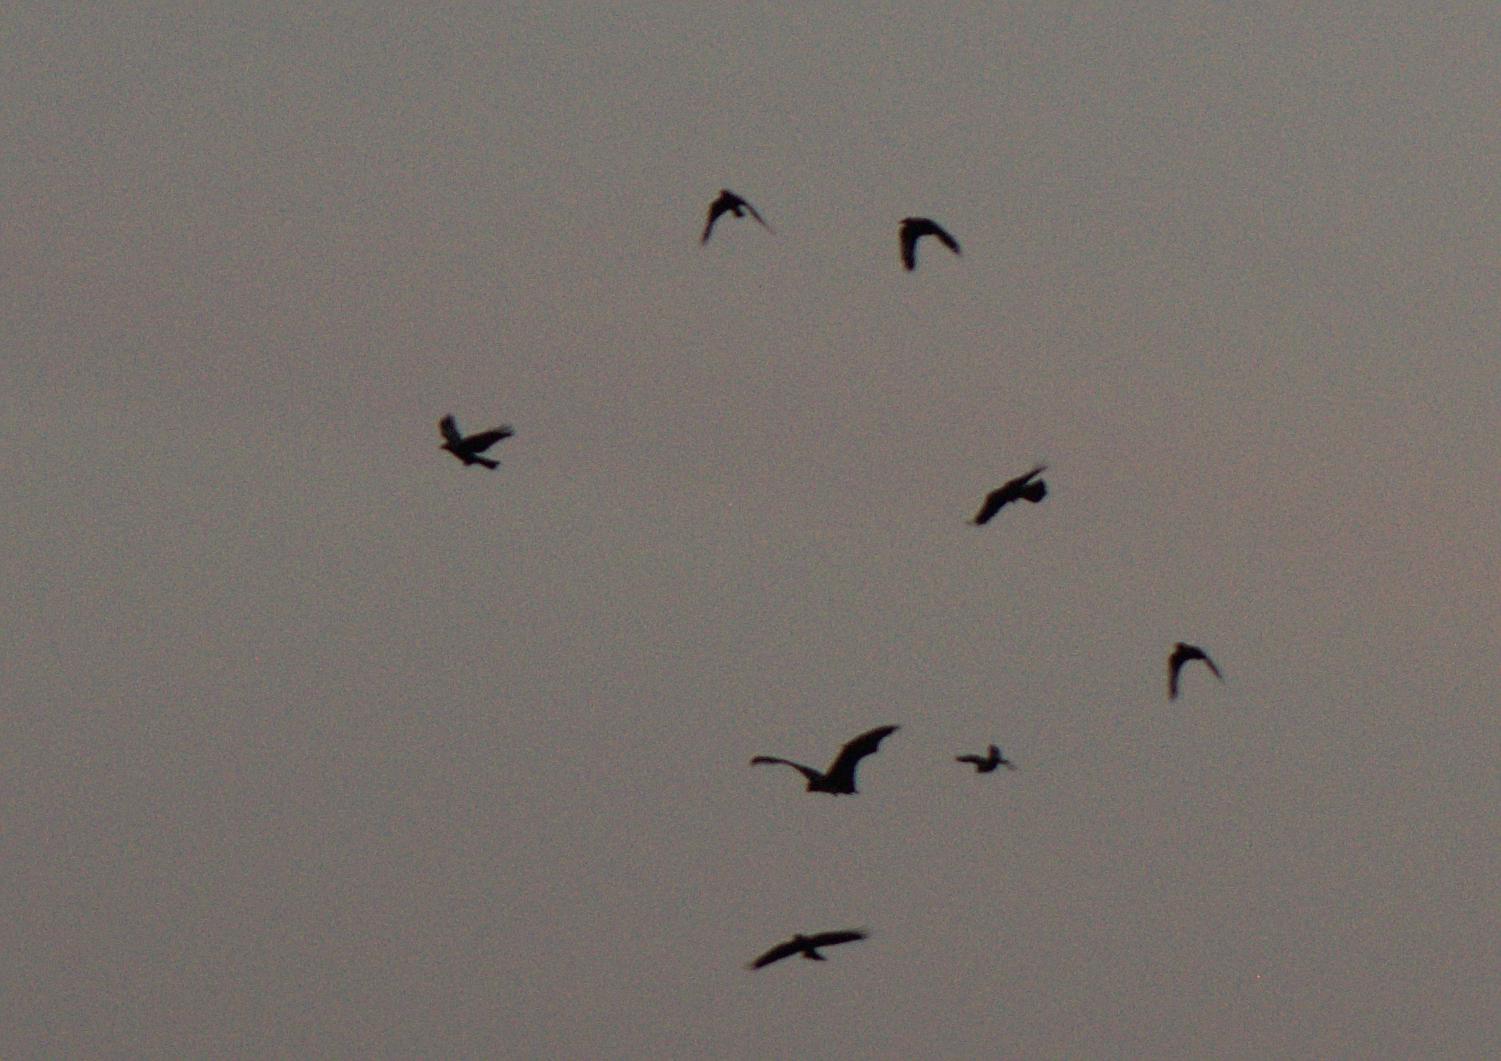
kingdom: Animalia
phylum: Chordata
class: Mammalia
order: Chiroptera
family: Pteropodidae
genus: Pteropus
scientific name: Pteropus vampyrus
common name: Large flying fox
